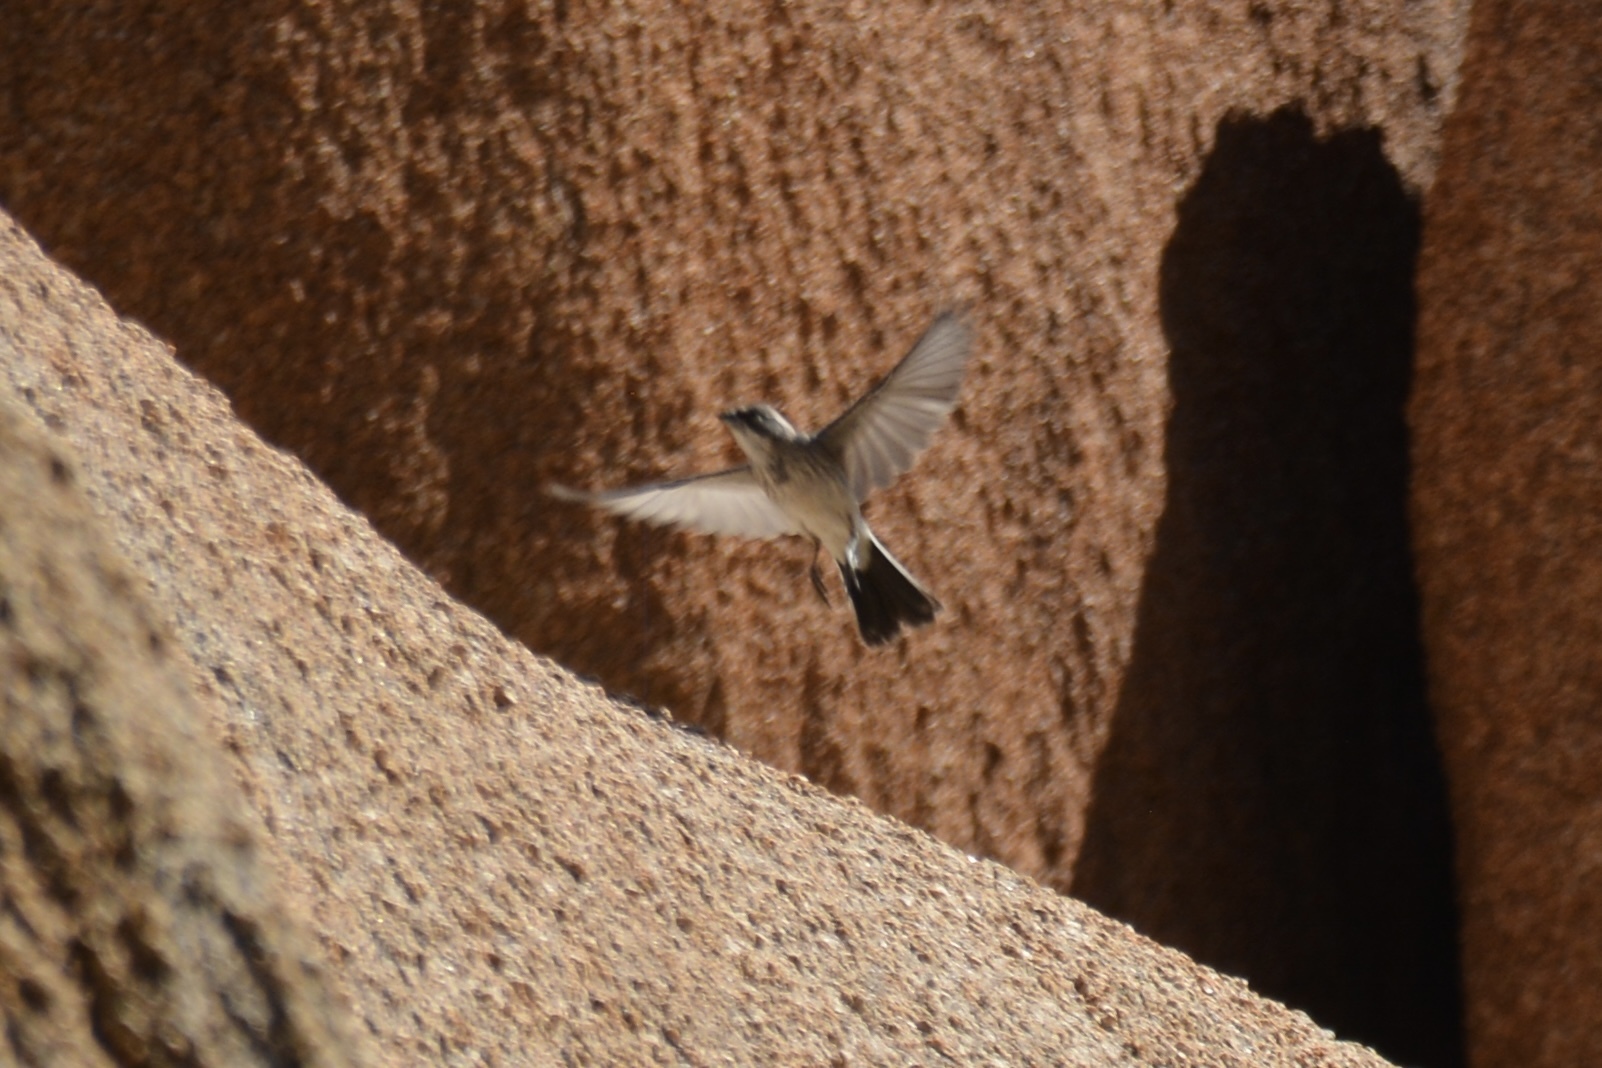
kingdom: Animalia
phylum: Chordata
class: Aves
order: Passeriformes
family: Passerellidae
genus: Amphispiza
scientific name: Amphispiza bilineata
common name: Black-throated sparrow
